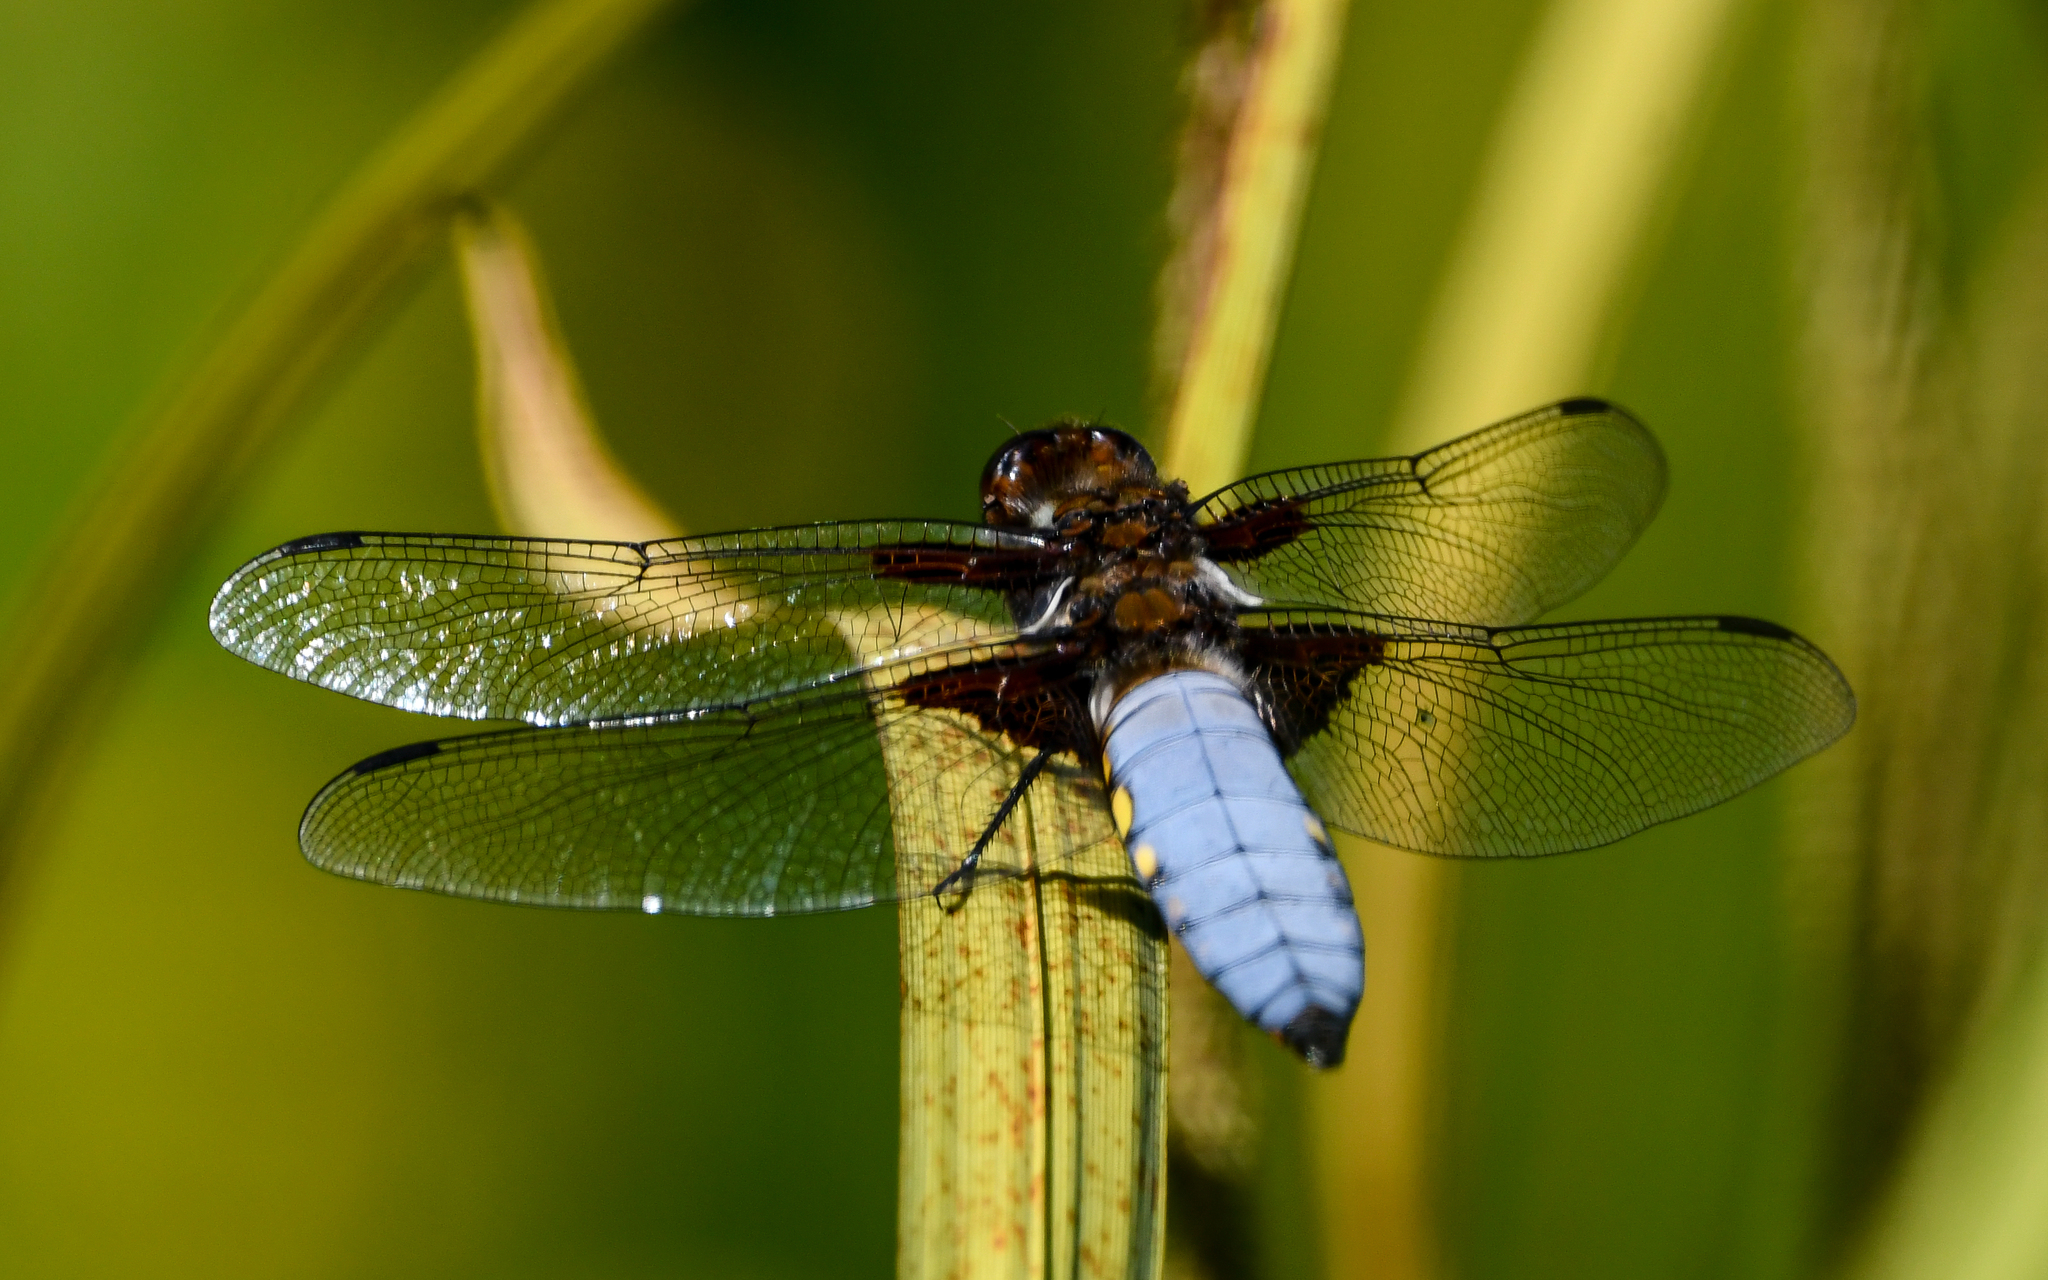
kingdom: Animalia
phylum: Arthropoda
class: Insecta
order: Odonata
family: Libellulidae
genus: Libellula
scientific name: Libellula depressa
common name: Broad-bodied chaser
